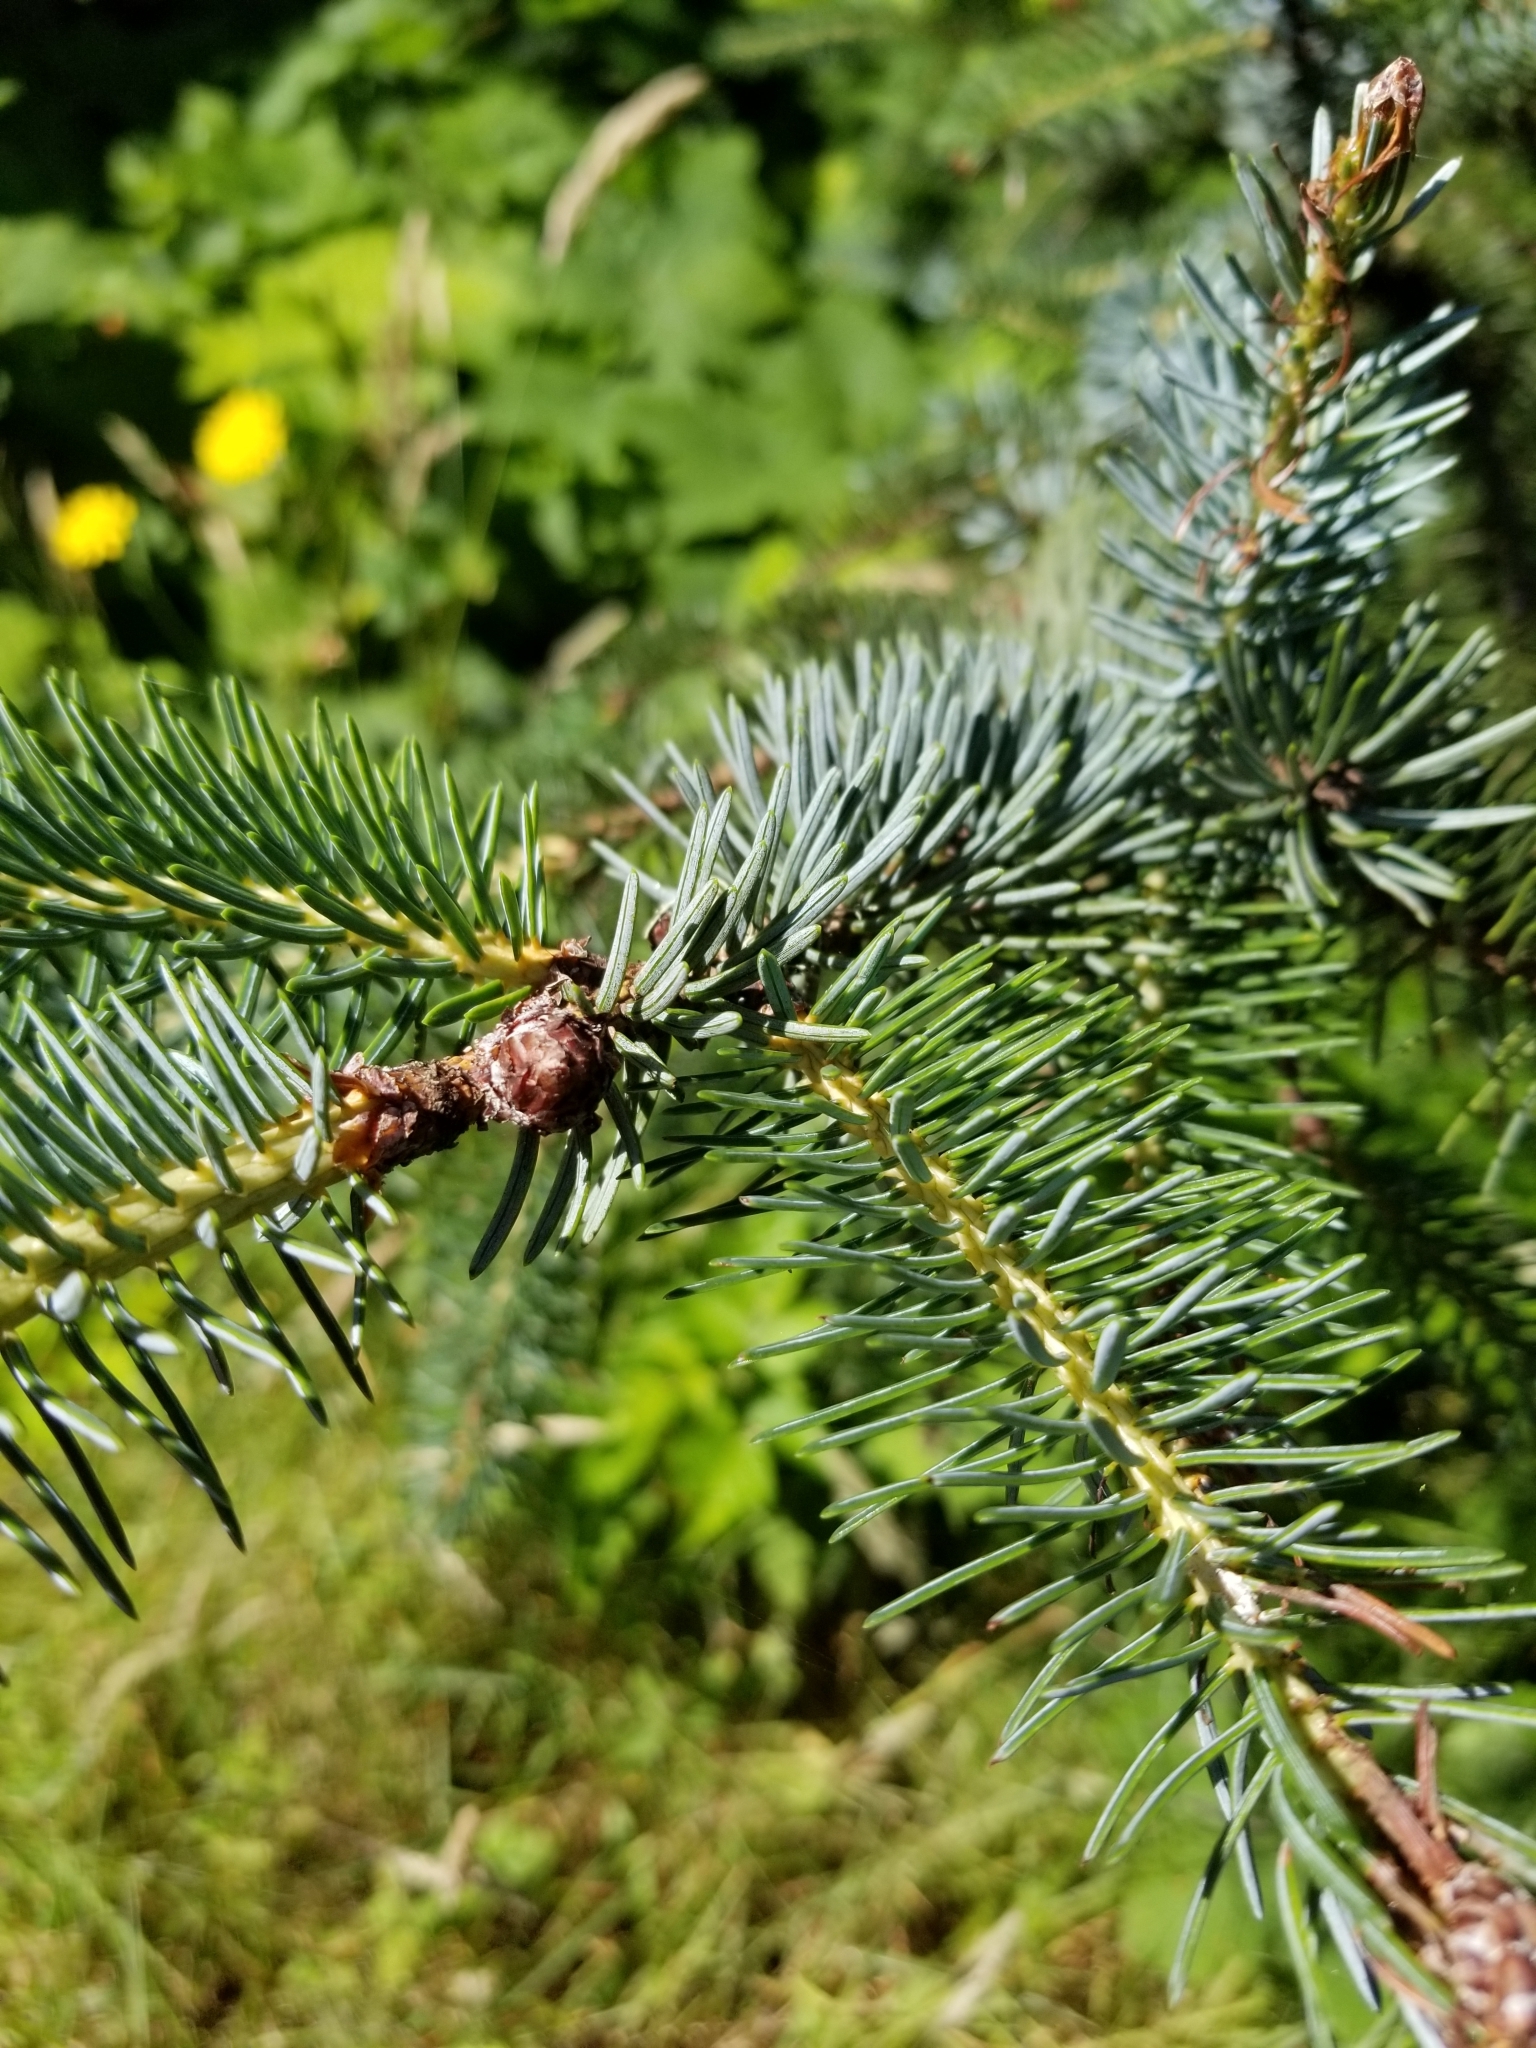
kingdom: Plantae
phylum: Tracheophyta
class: Pinopsida
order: Pinales
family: Pinaceae
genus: Picea
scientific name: Picea sitchensis
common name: Sitka spruce
